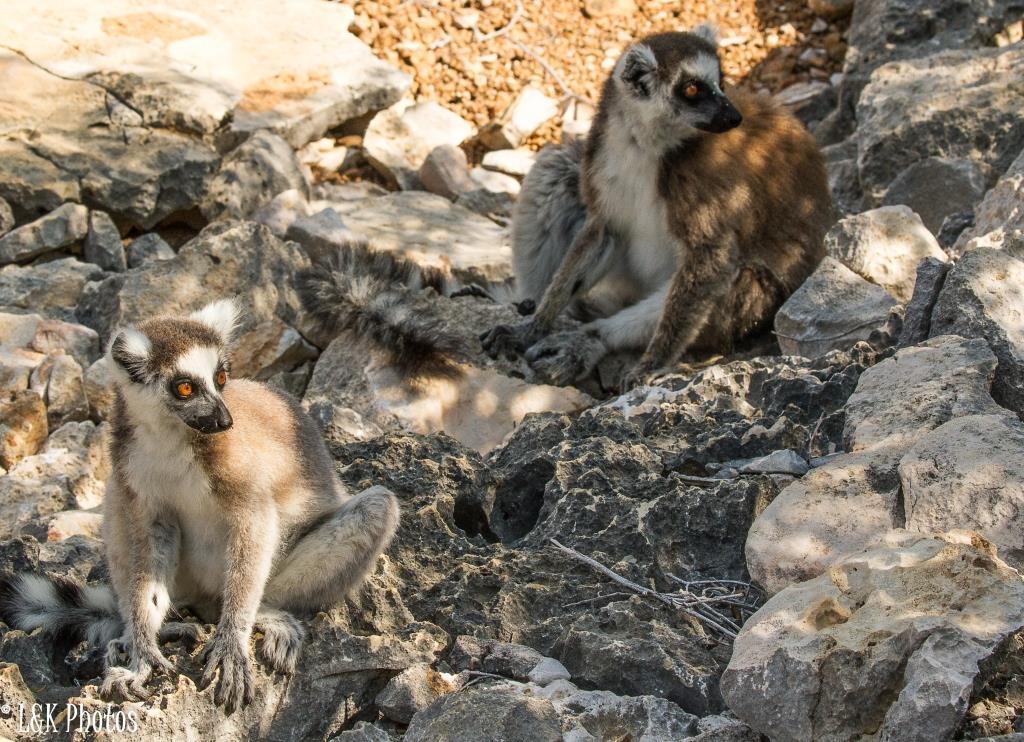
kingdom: Animalia
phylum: Chordata
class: Mammalia
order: Primates
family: Lemuridae
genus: Lemur
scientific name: Lemur catta
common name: Ring-tailed lemur
